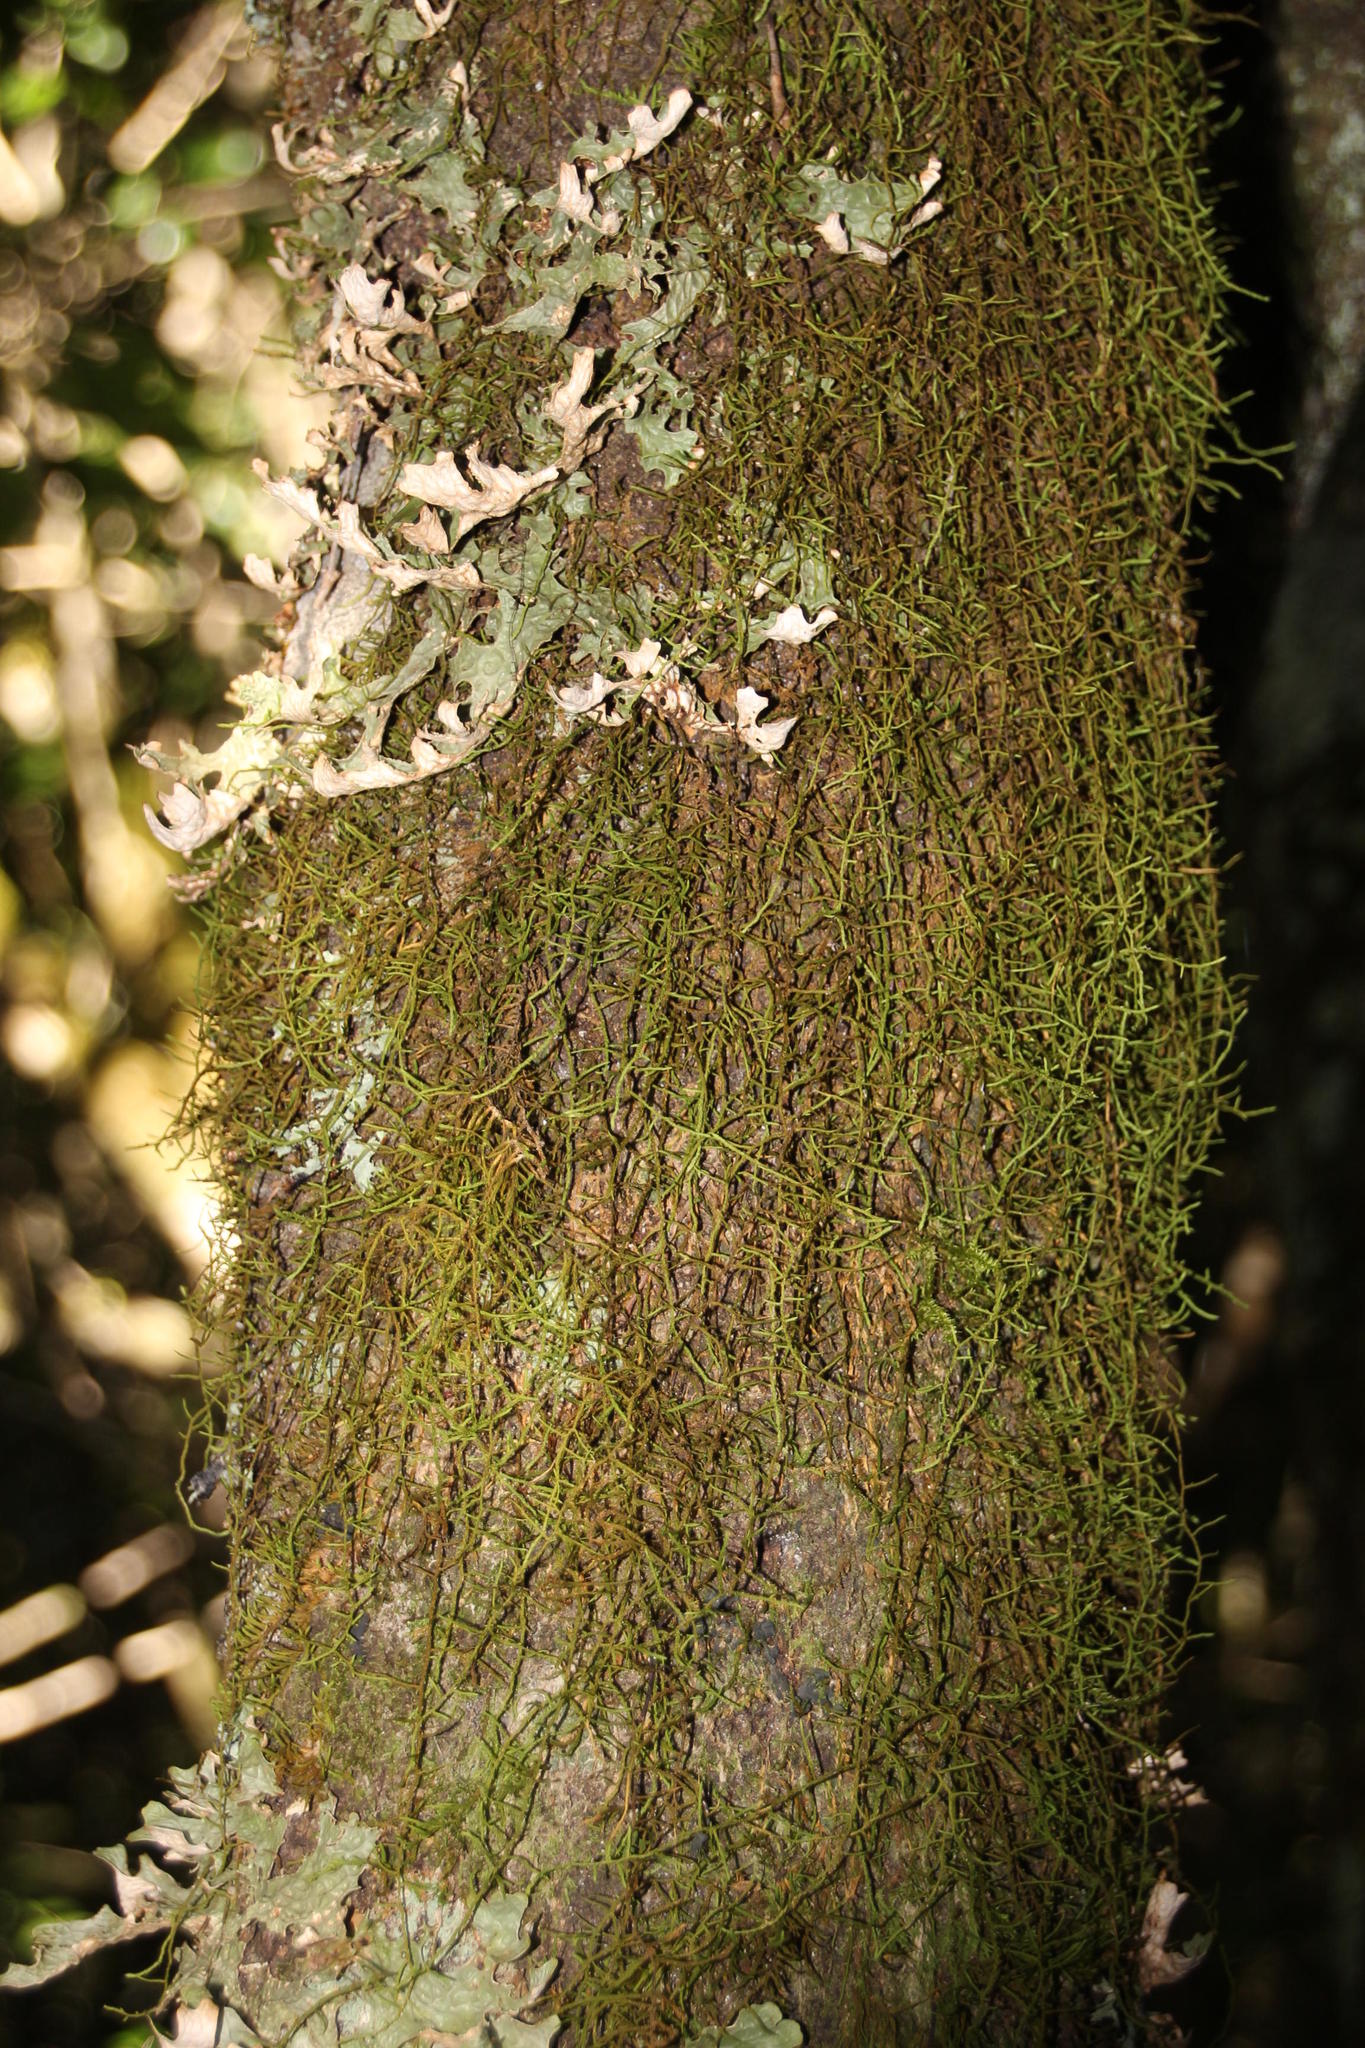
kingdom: Plantae
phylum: Bryophyta
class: Bryopsida
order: Hypnales
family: Meteoriaceae
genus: Papillaria
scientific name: Papillaria africana
